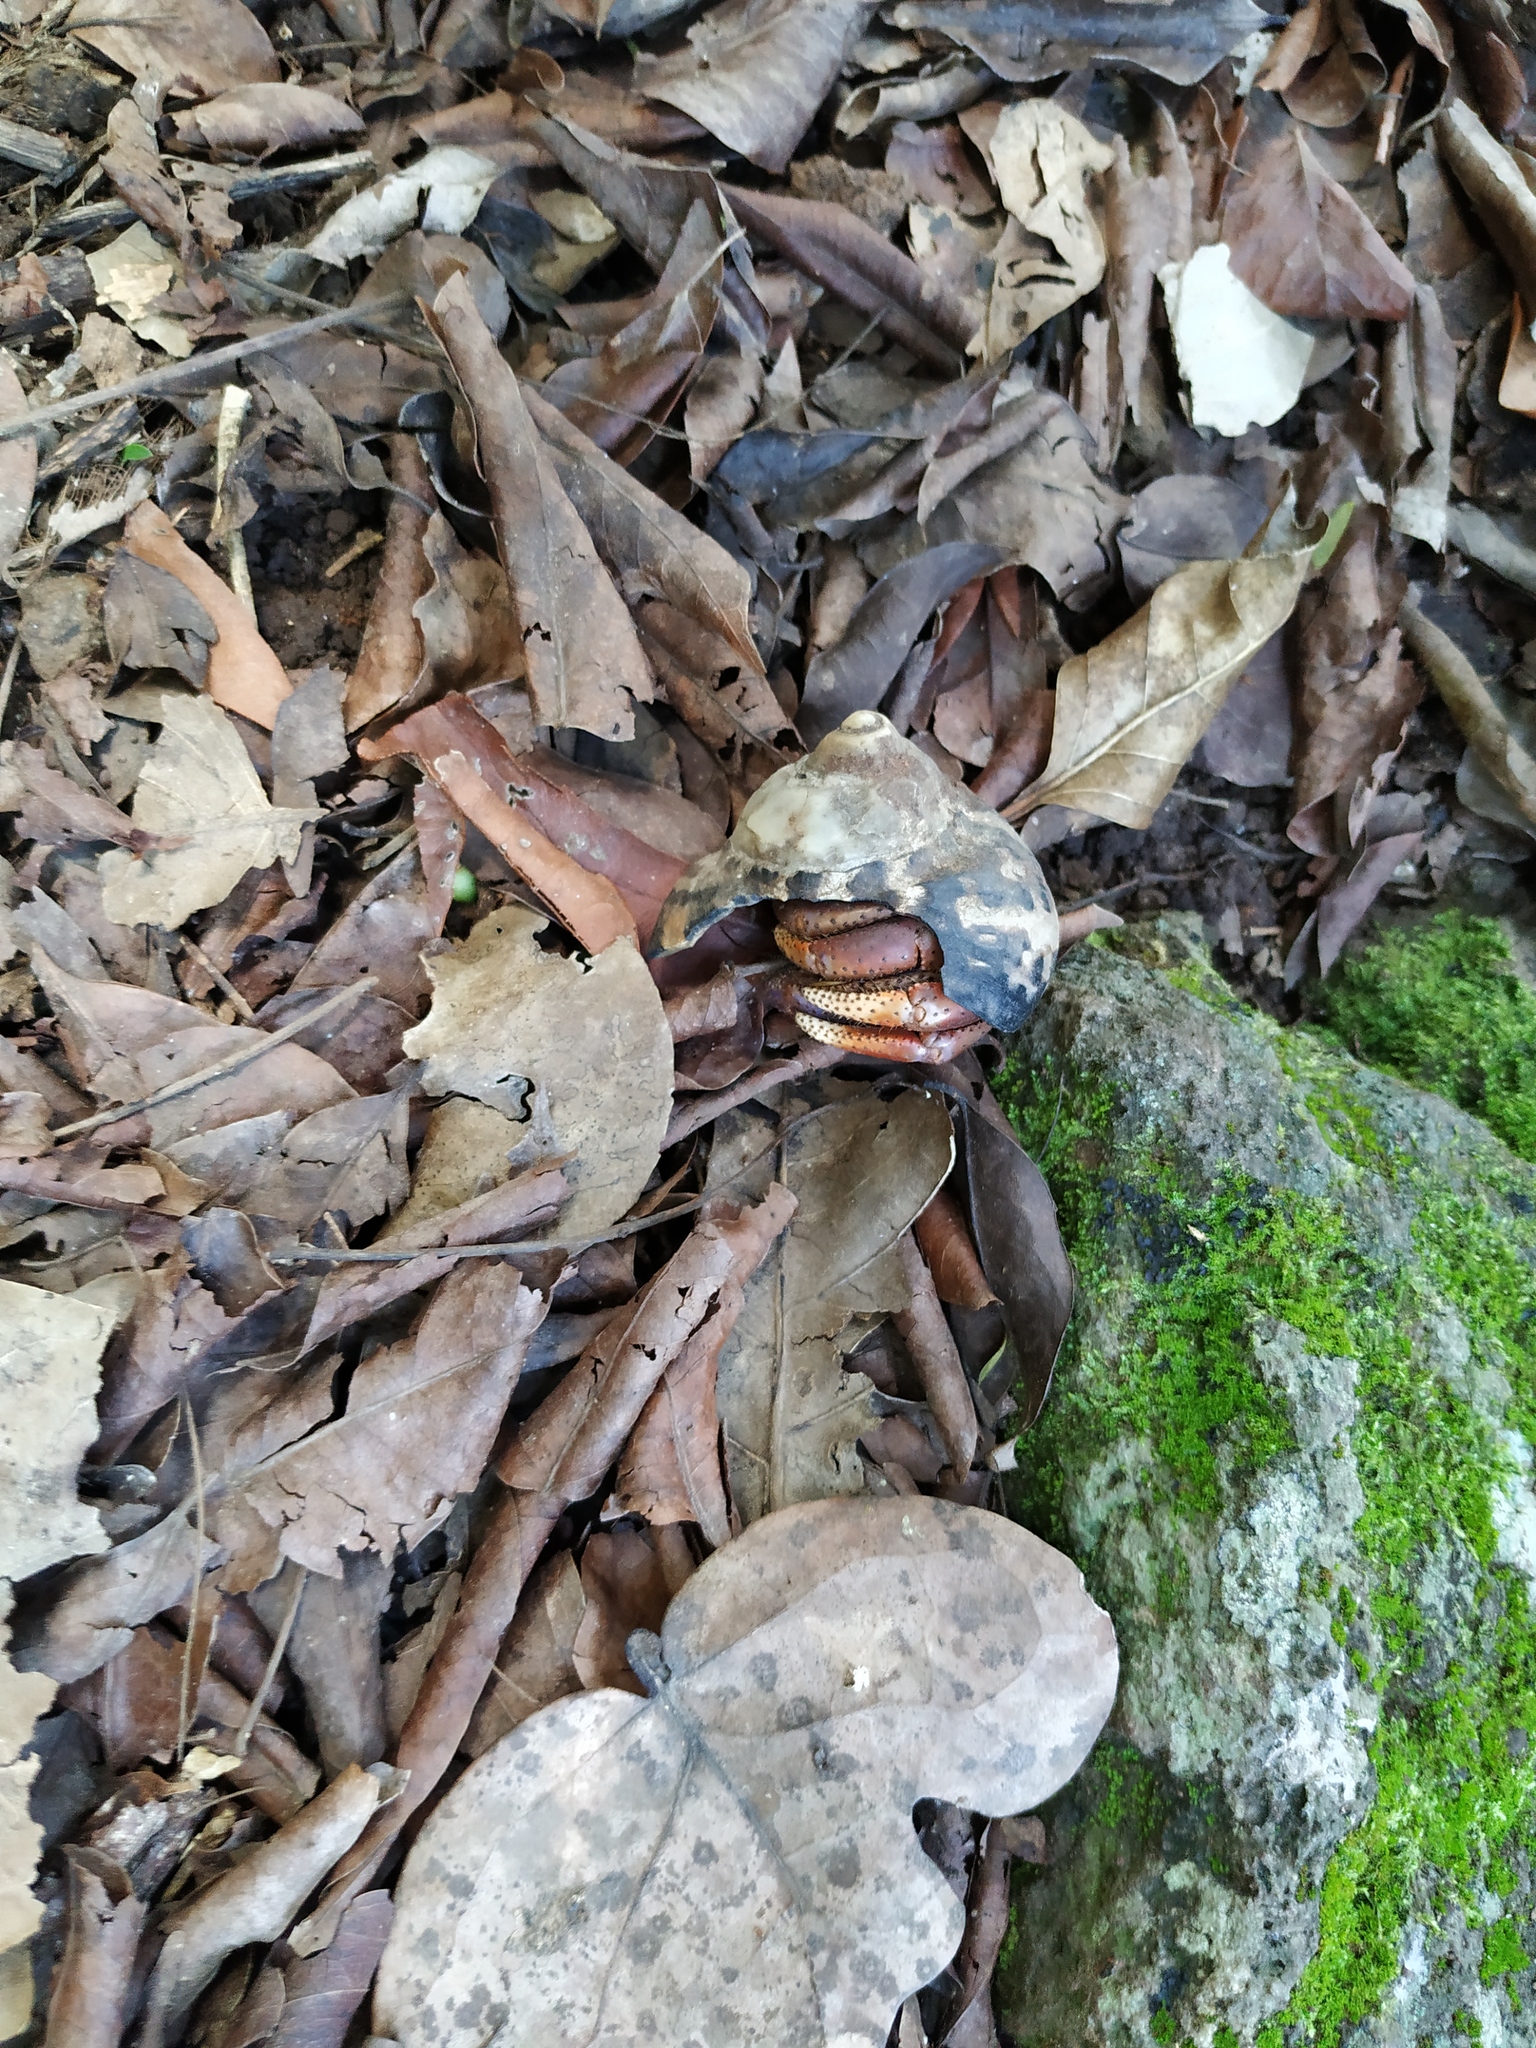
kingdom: Animalia
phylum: Arthropoda
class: Malacostraca
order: Decapoda
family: Coenobitidae
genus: Coenobita
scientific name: Coenobita clypeatus
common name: Caribbean hermit crab
